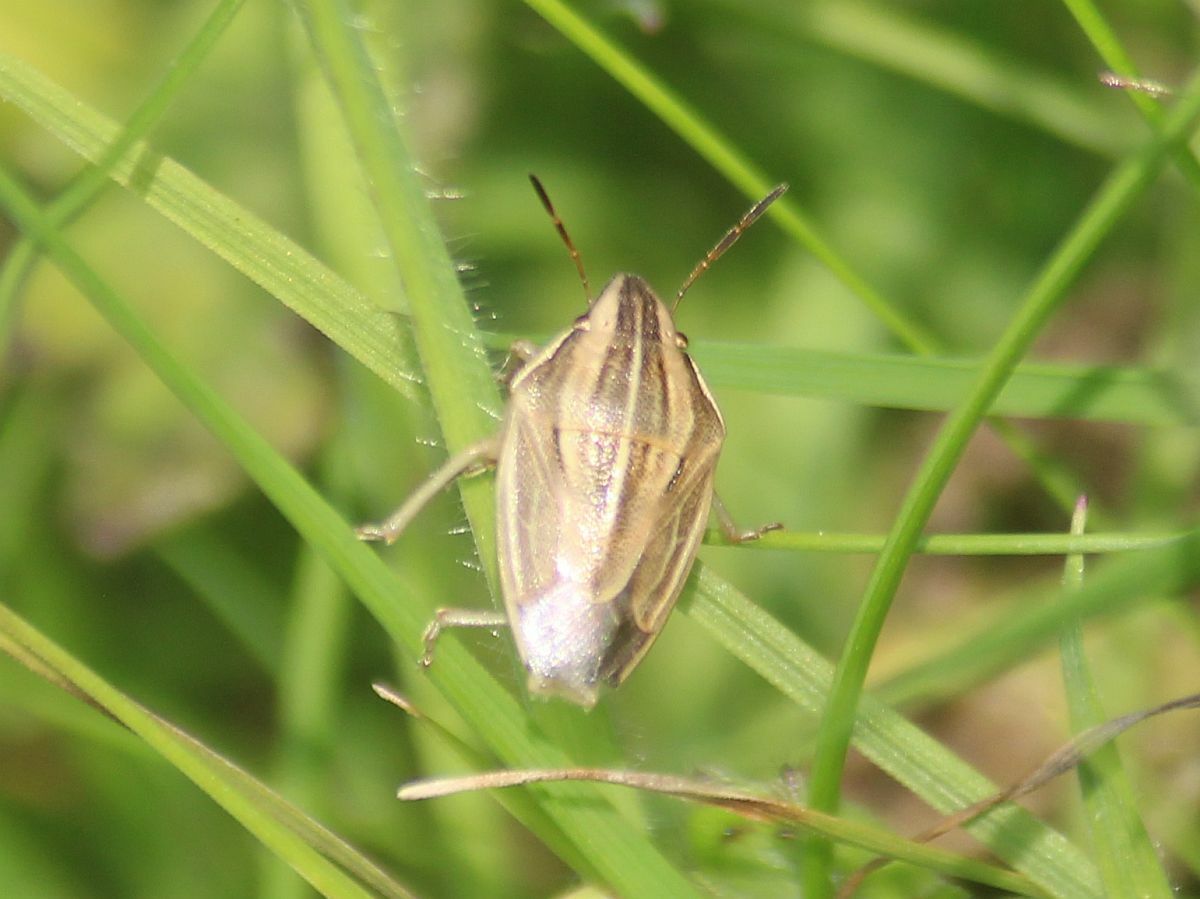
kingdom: Animalia
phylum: Arthropoda
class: Insecta
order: Hemiptera
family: Pentatomidae
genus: Aelia
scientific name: Aelia acuminata
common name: Bishop's mitre
